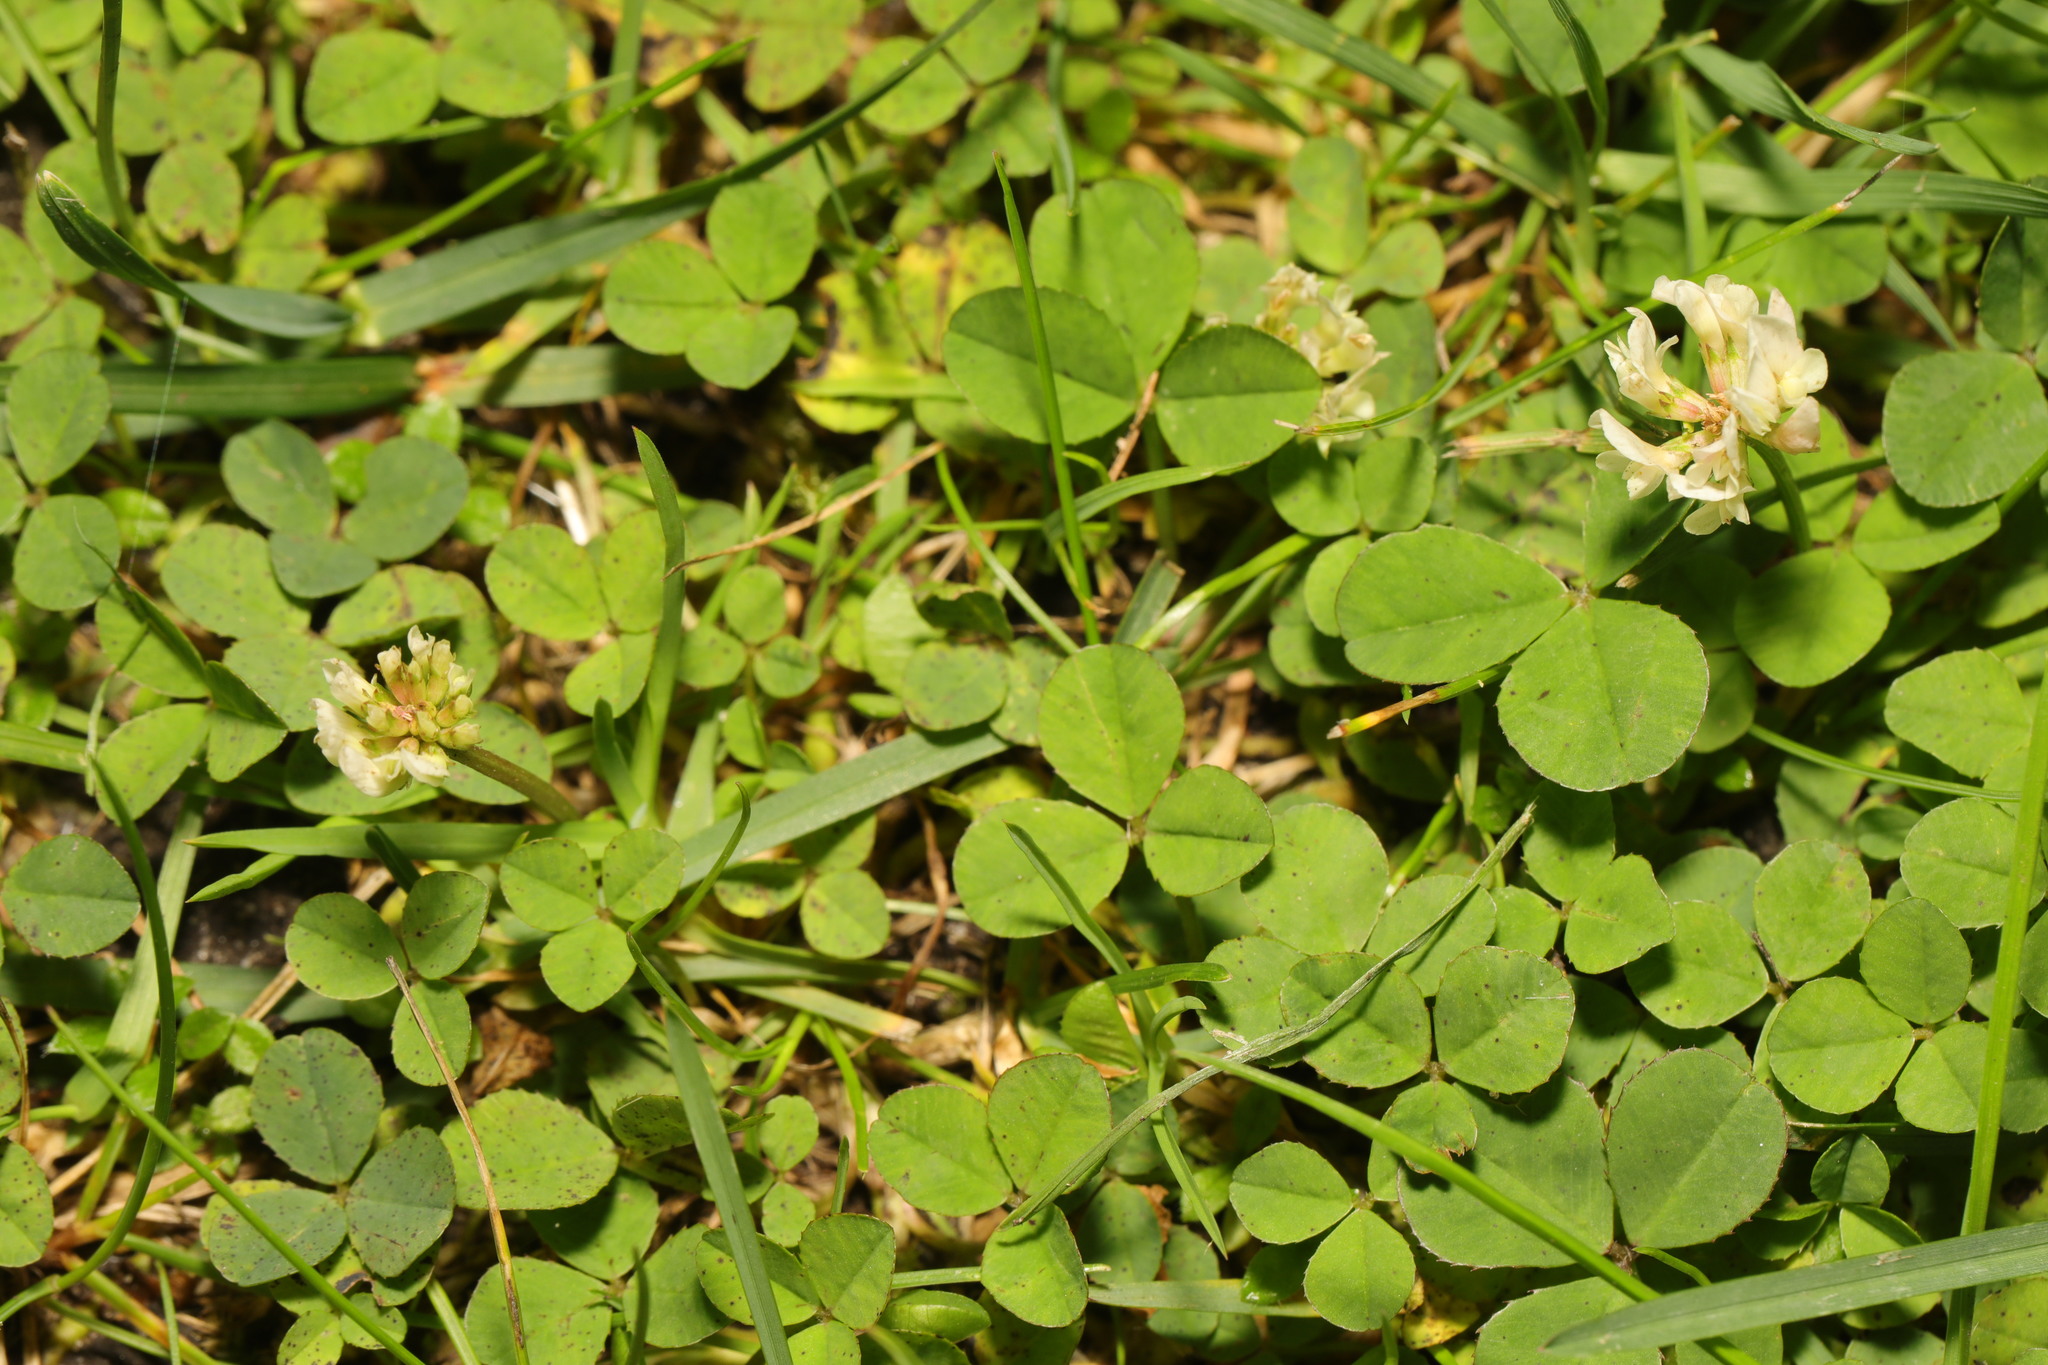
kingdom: Plantae
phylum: Tracheophyta
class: Magnoliopsida
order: Fabales
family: Fabaceae
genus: Trifolium
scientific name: Trifolium repens
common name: White clover
